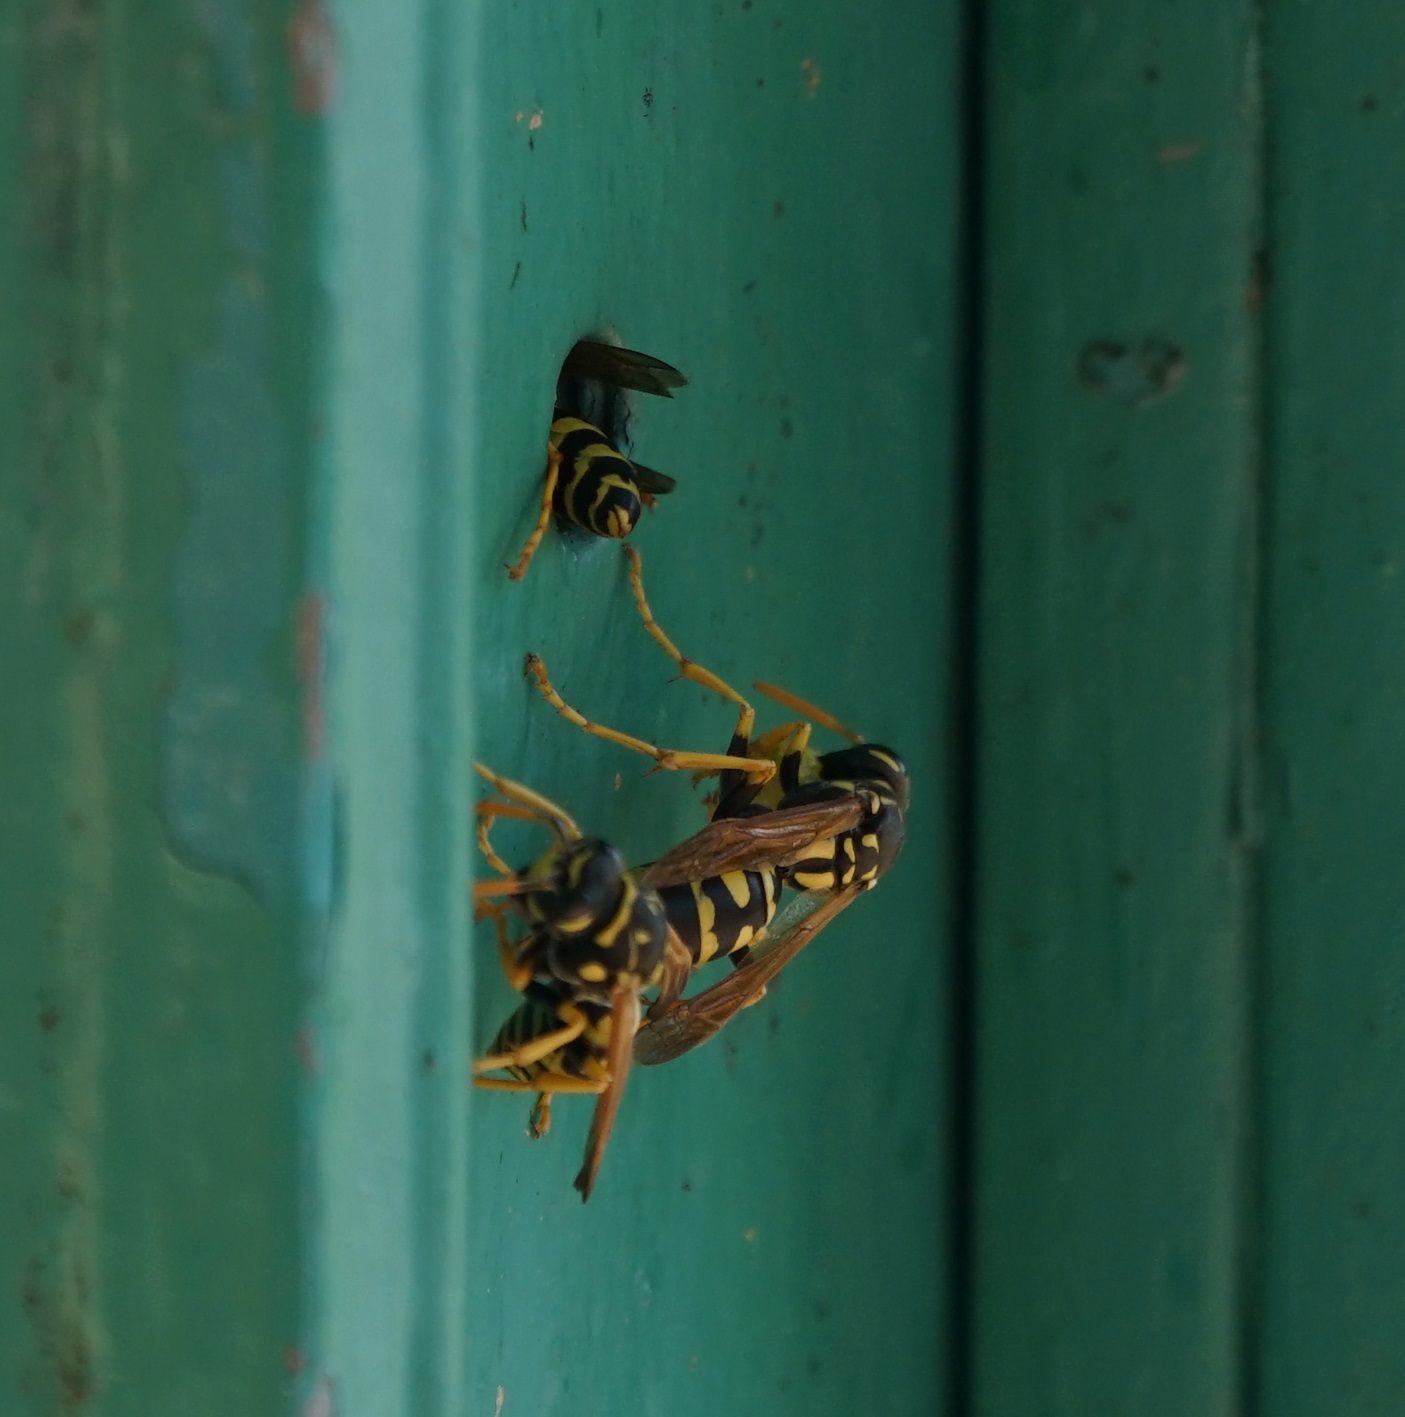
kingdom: Animalia
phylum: Arthropoda
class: Insecta
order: Hymenoptera
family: Eumenidae
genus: Polistes
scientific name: Polistes dominula
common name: Paper wasp
